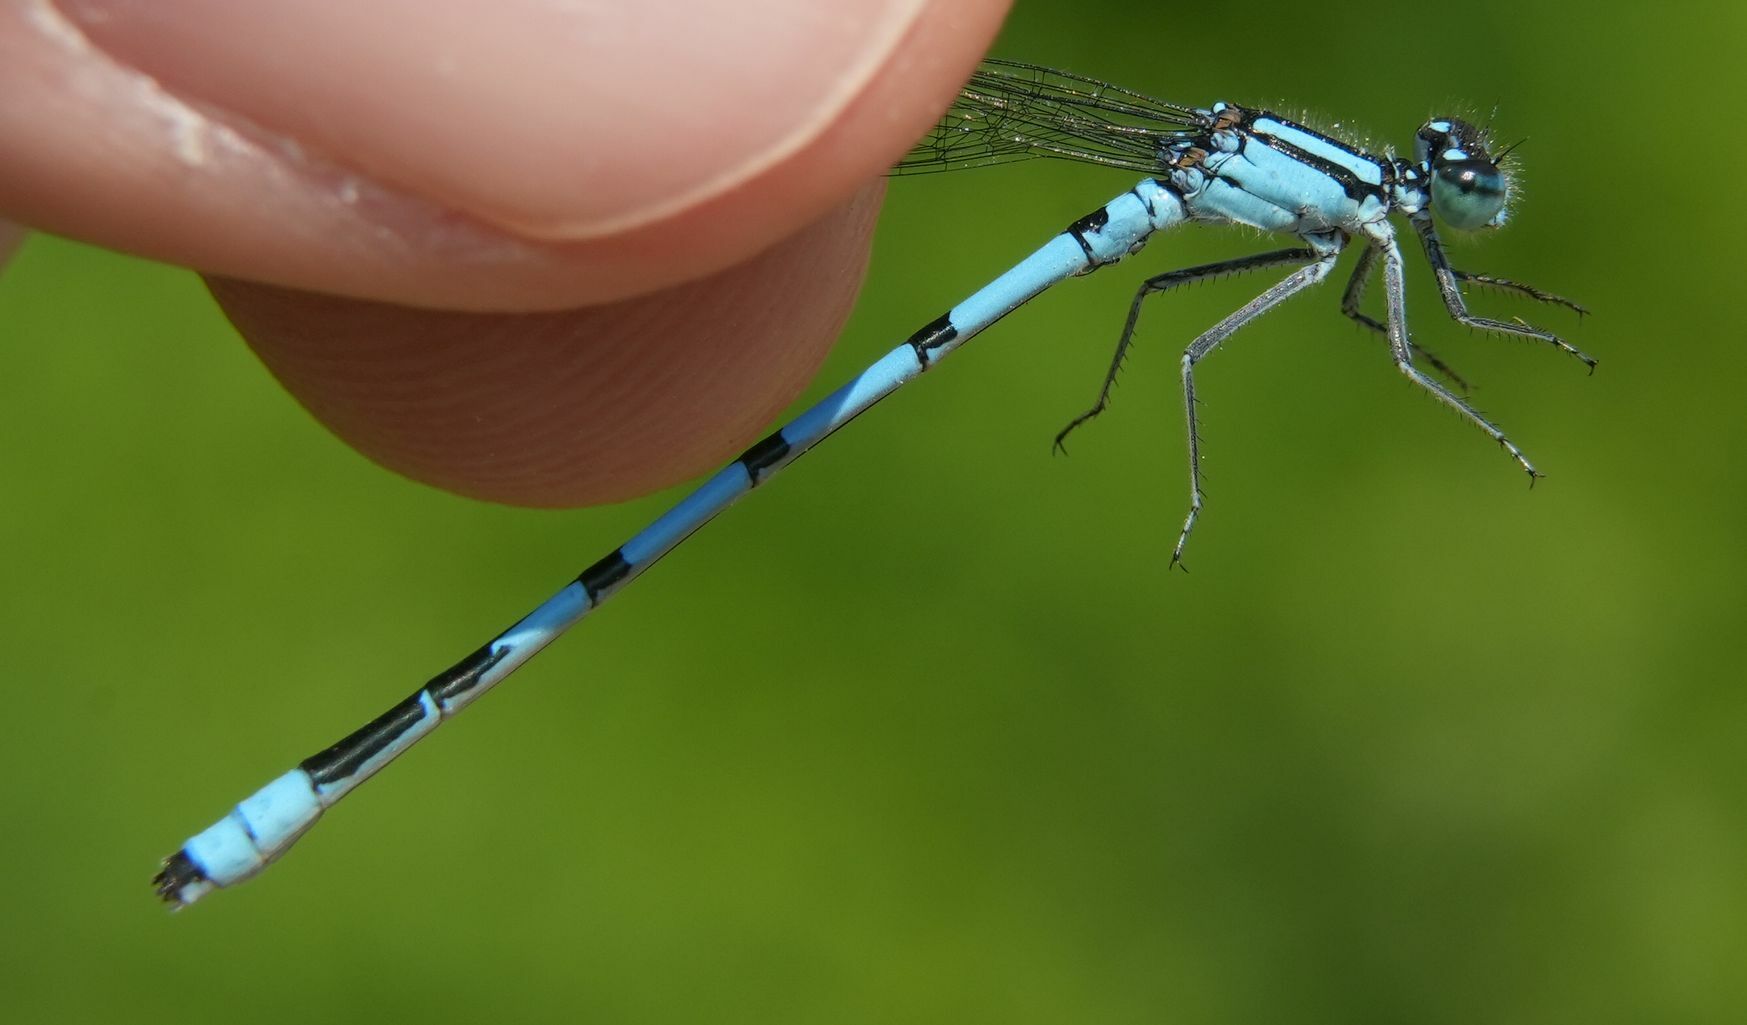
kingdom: Animalia
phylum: Arthropoda
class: Insecta
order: Odonata
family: Coenagrionidae
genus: Enallagma
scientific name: Enallagma ebrium
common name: Marsh bluet
